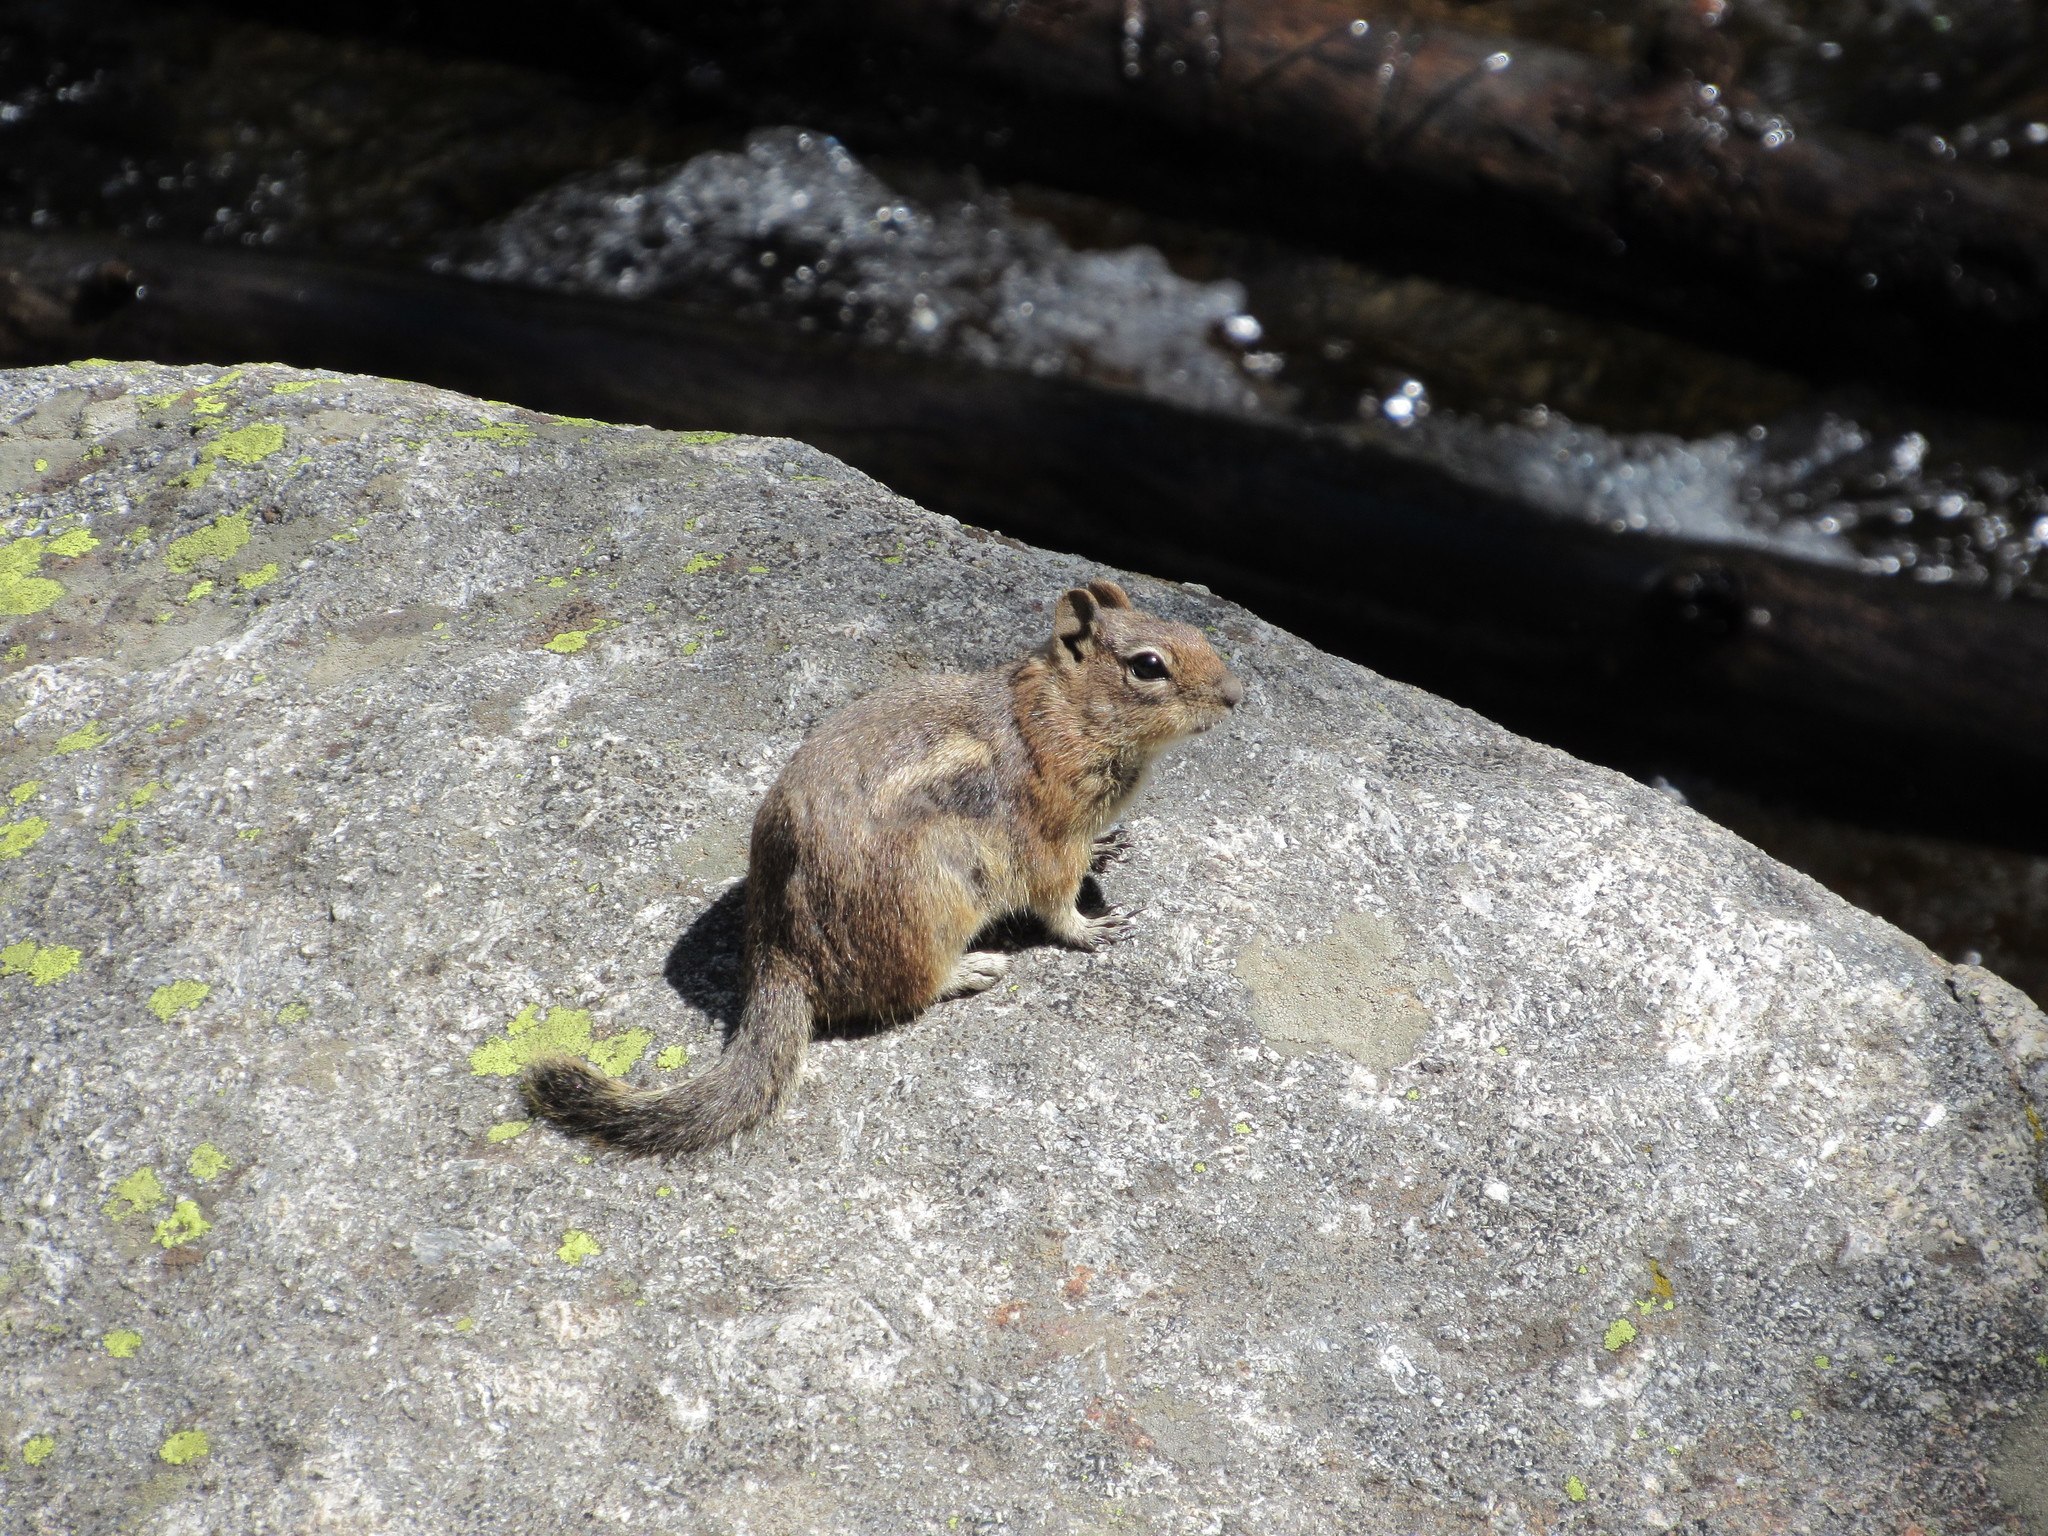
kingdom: Animalia
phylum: Chordata
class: Mammalia
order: Rodentia
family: Sciuridae
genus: Callospermophilus
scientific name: Callospermophilus lateralis
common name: Golden-mantled ground squirrel
